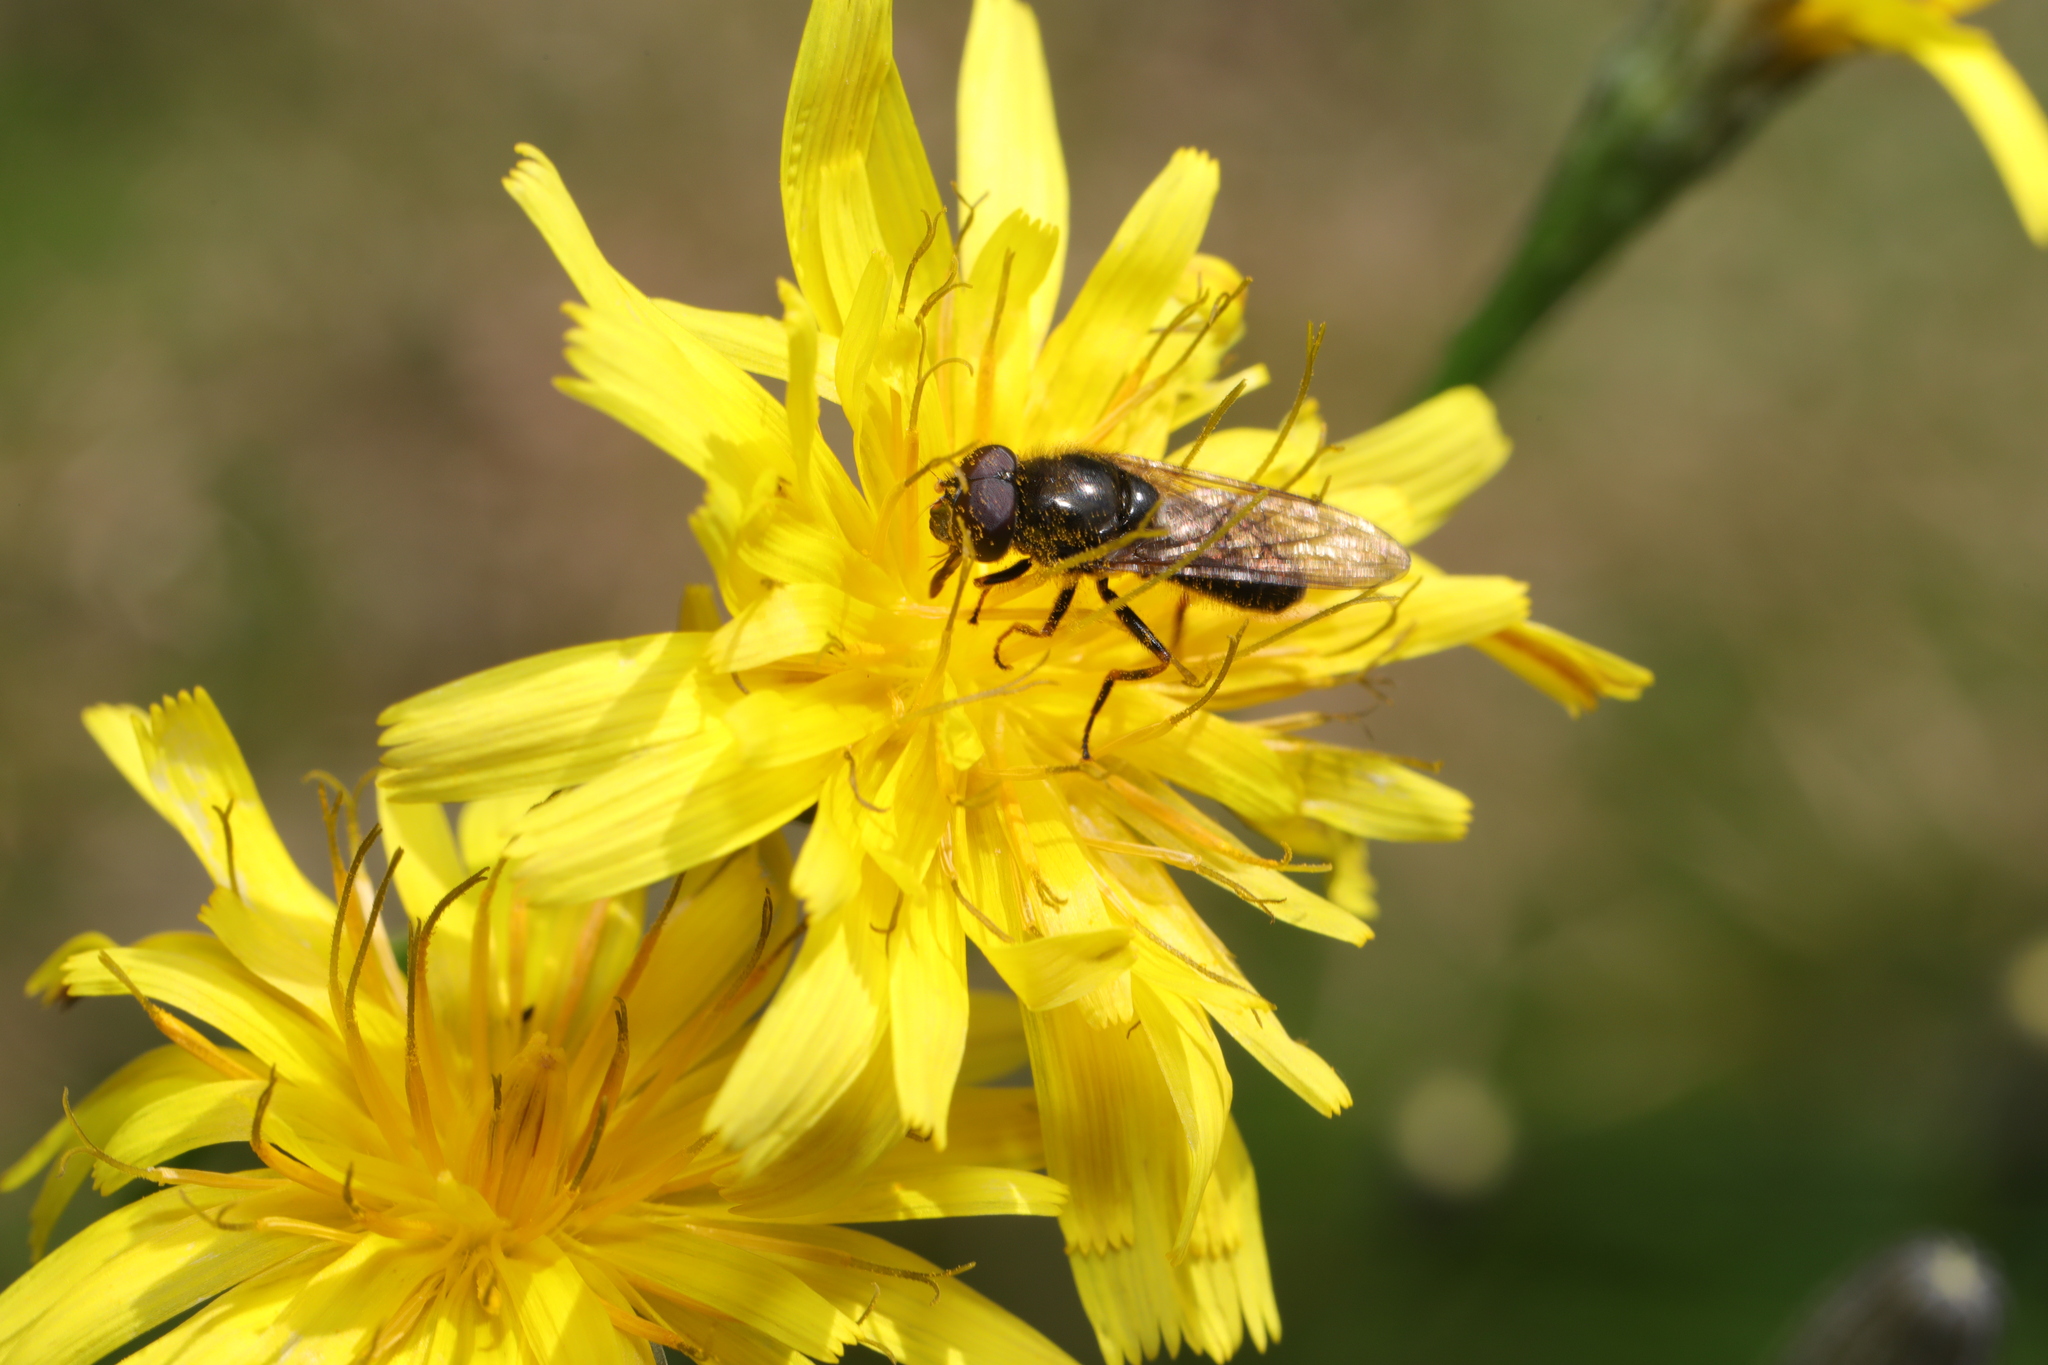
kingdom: Animalia
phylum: Arthropoda
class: Insecta
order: Diptera
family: Syrphidae
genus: Cheilosia
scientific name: Cheilosia bergenstammi
